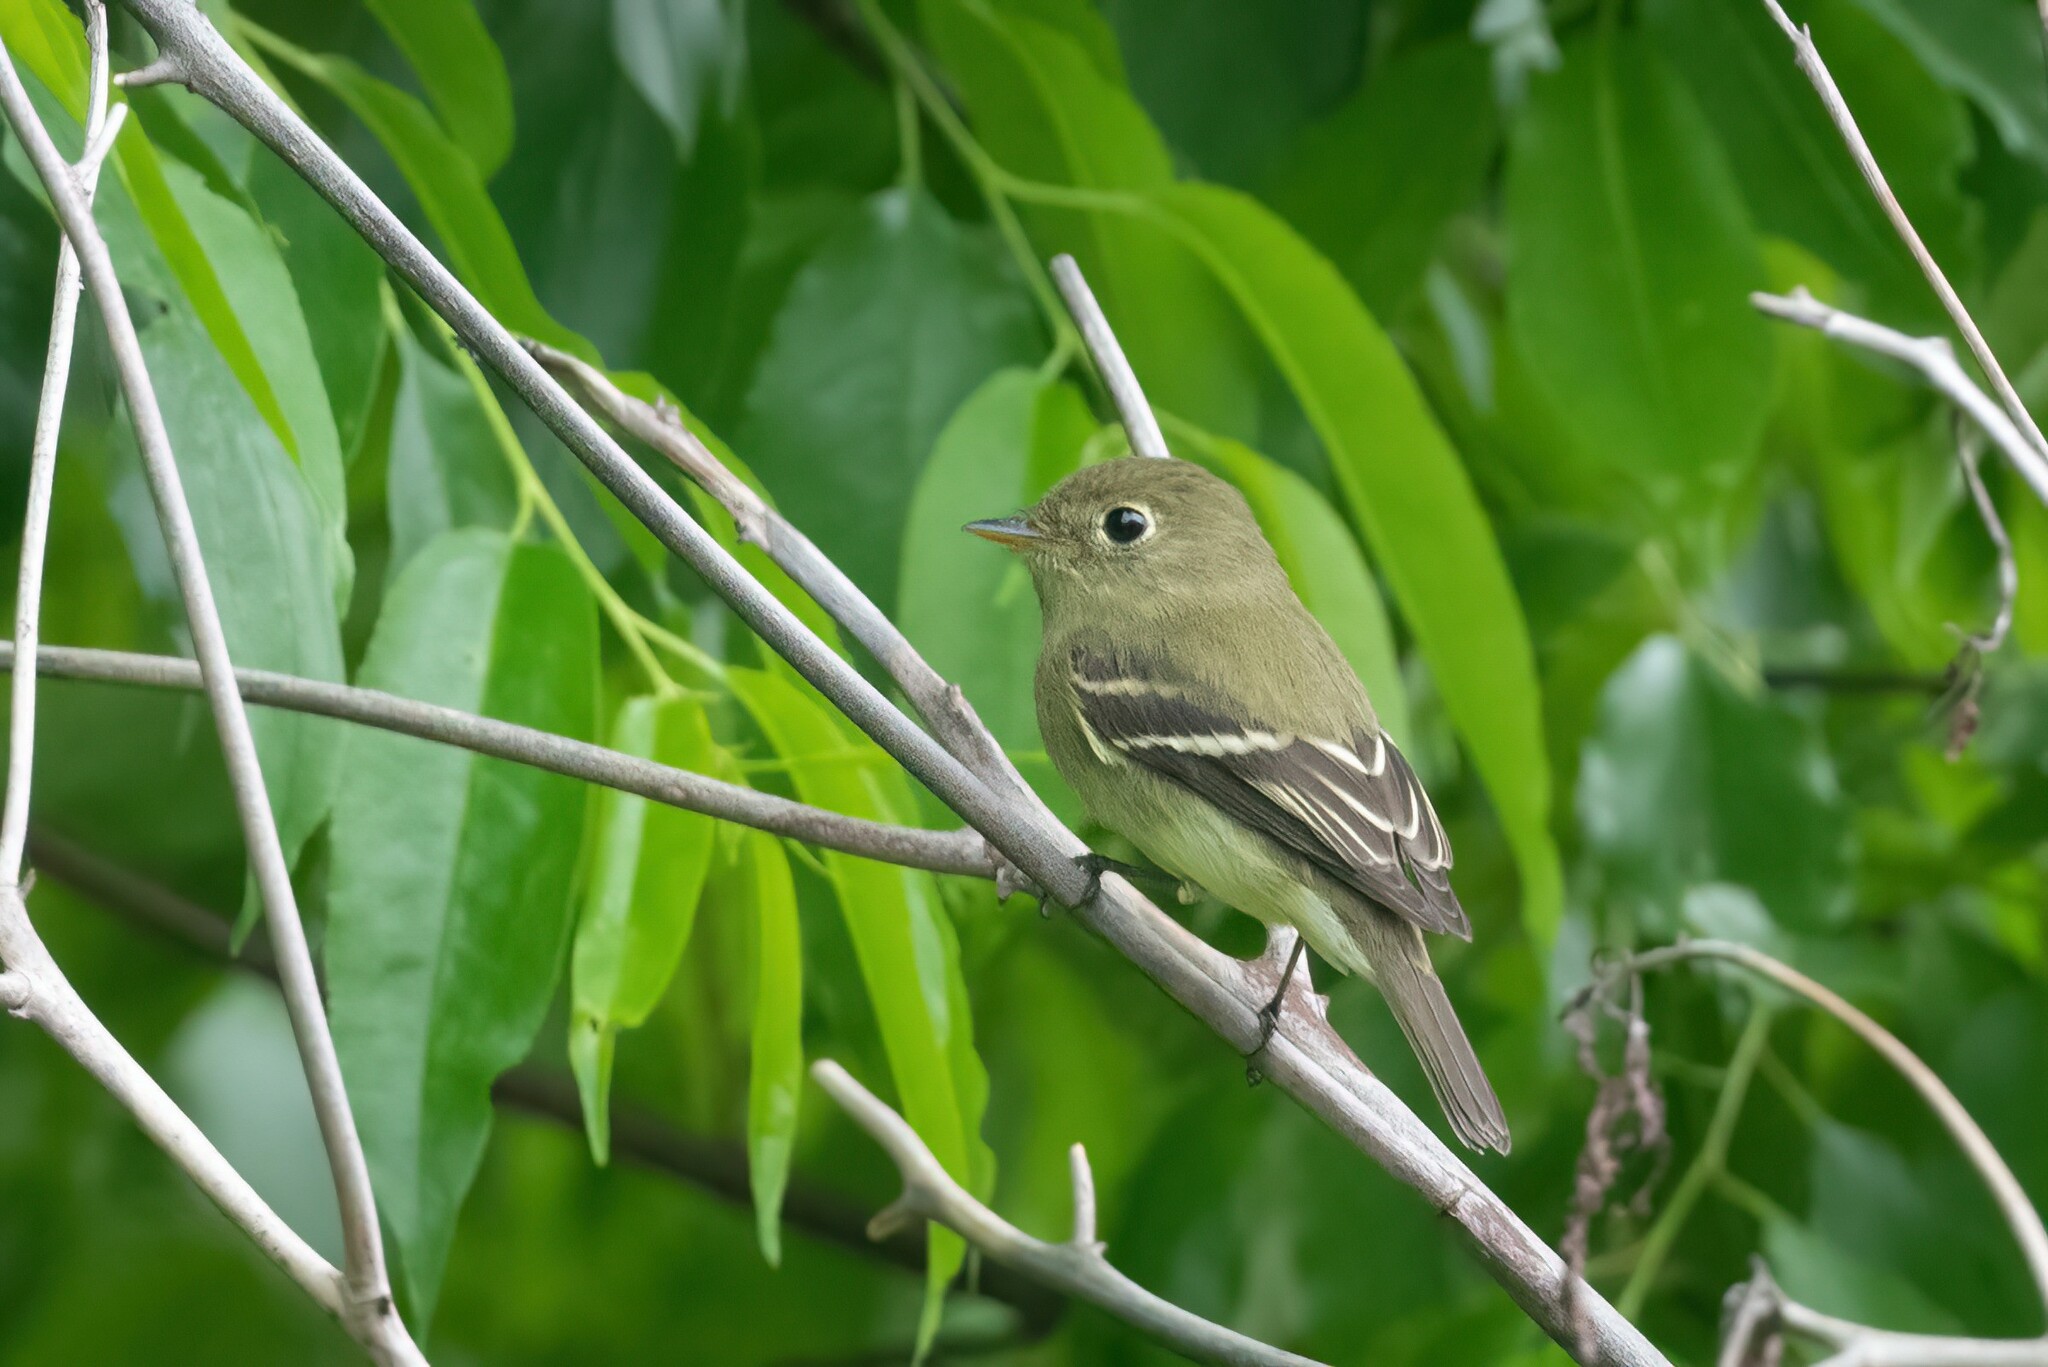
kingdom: Animalia
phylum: Chordata
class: Aves
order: Passeriformes
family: Tyrannidae
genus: Empidonax
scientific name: Empidonax flaviventris
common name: Yellow-bellied flycatcher
